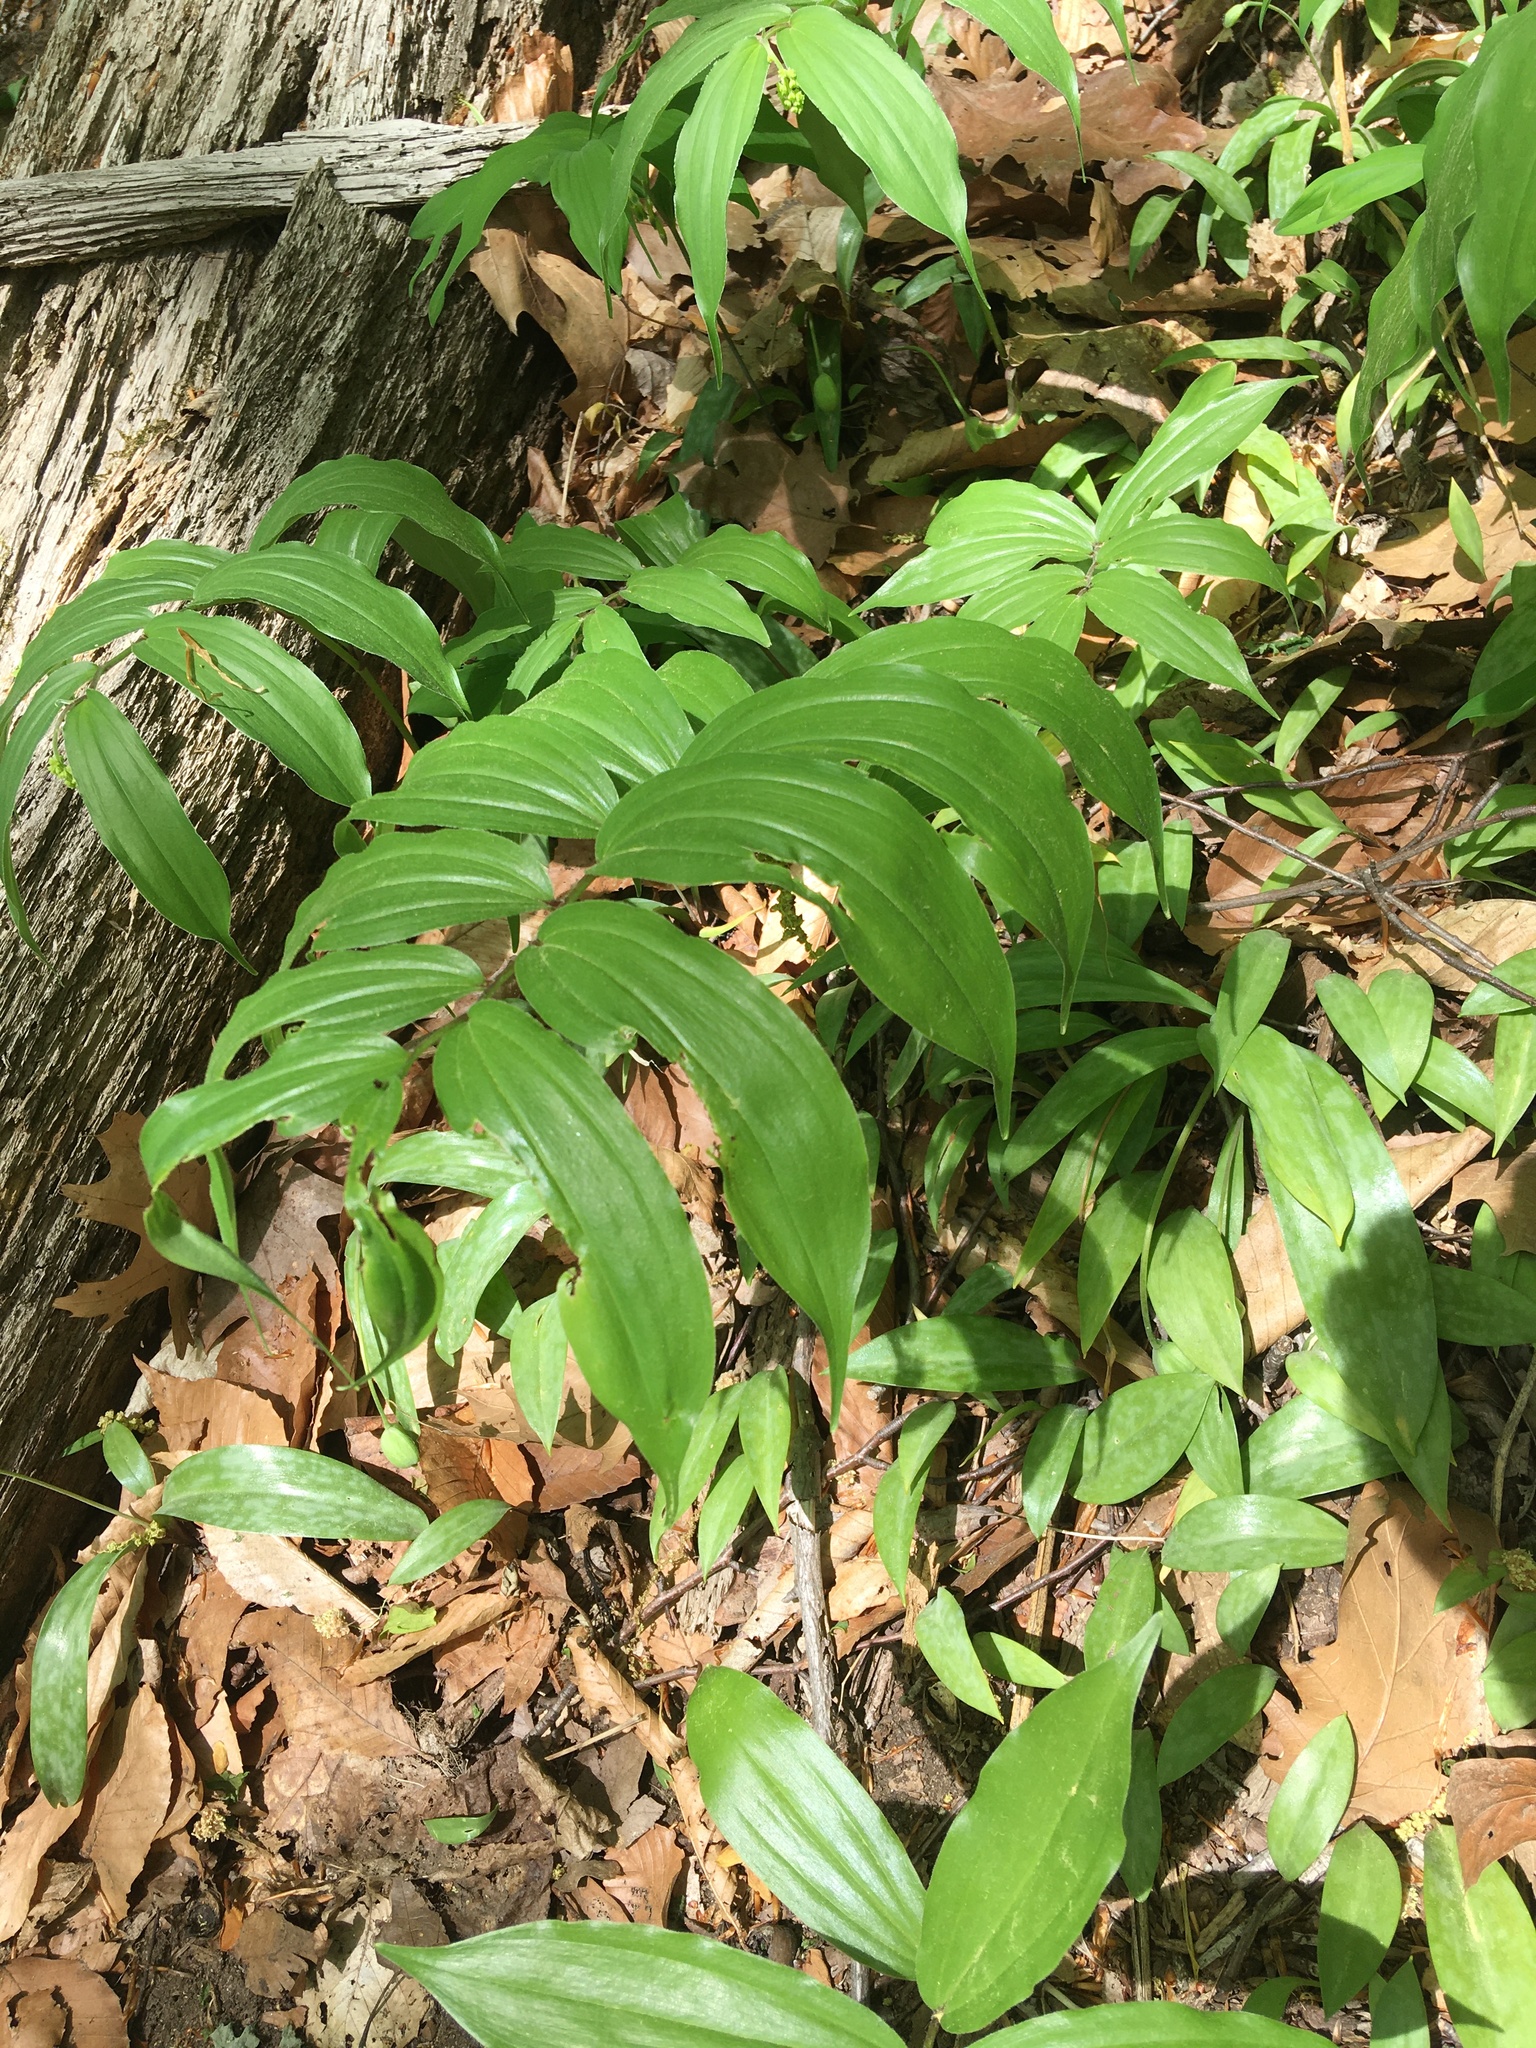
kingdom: Plantae
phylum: Tracheophyta
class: Liliopsida
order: Asparagales
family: Asparagaceae
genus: Maianthemum
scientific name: Maianthemum racemosum
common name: False spikenard
